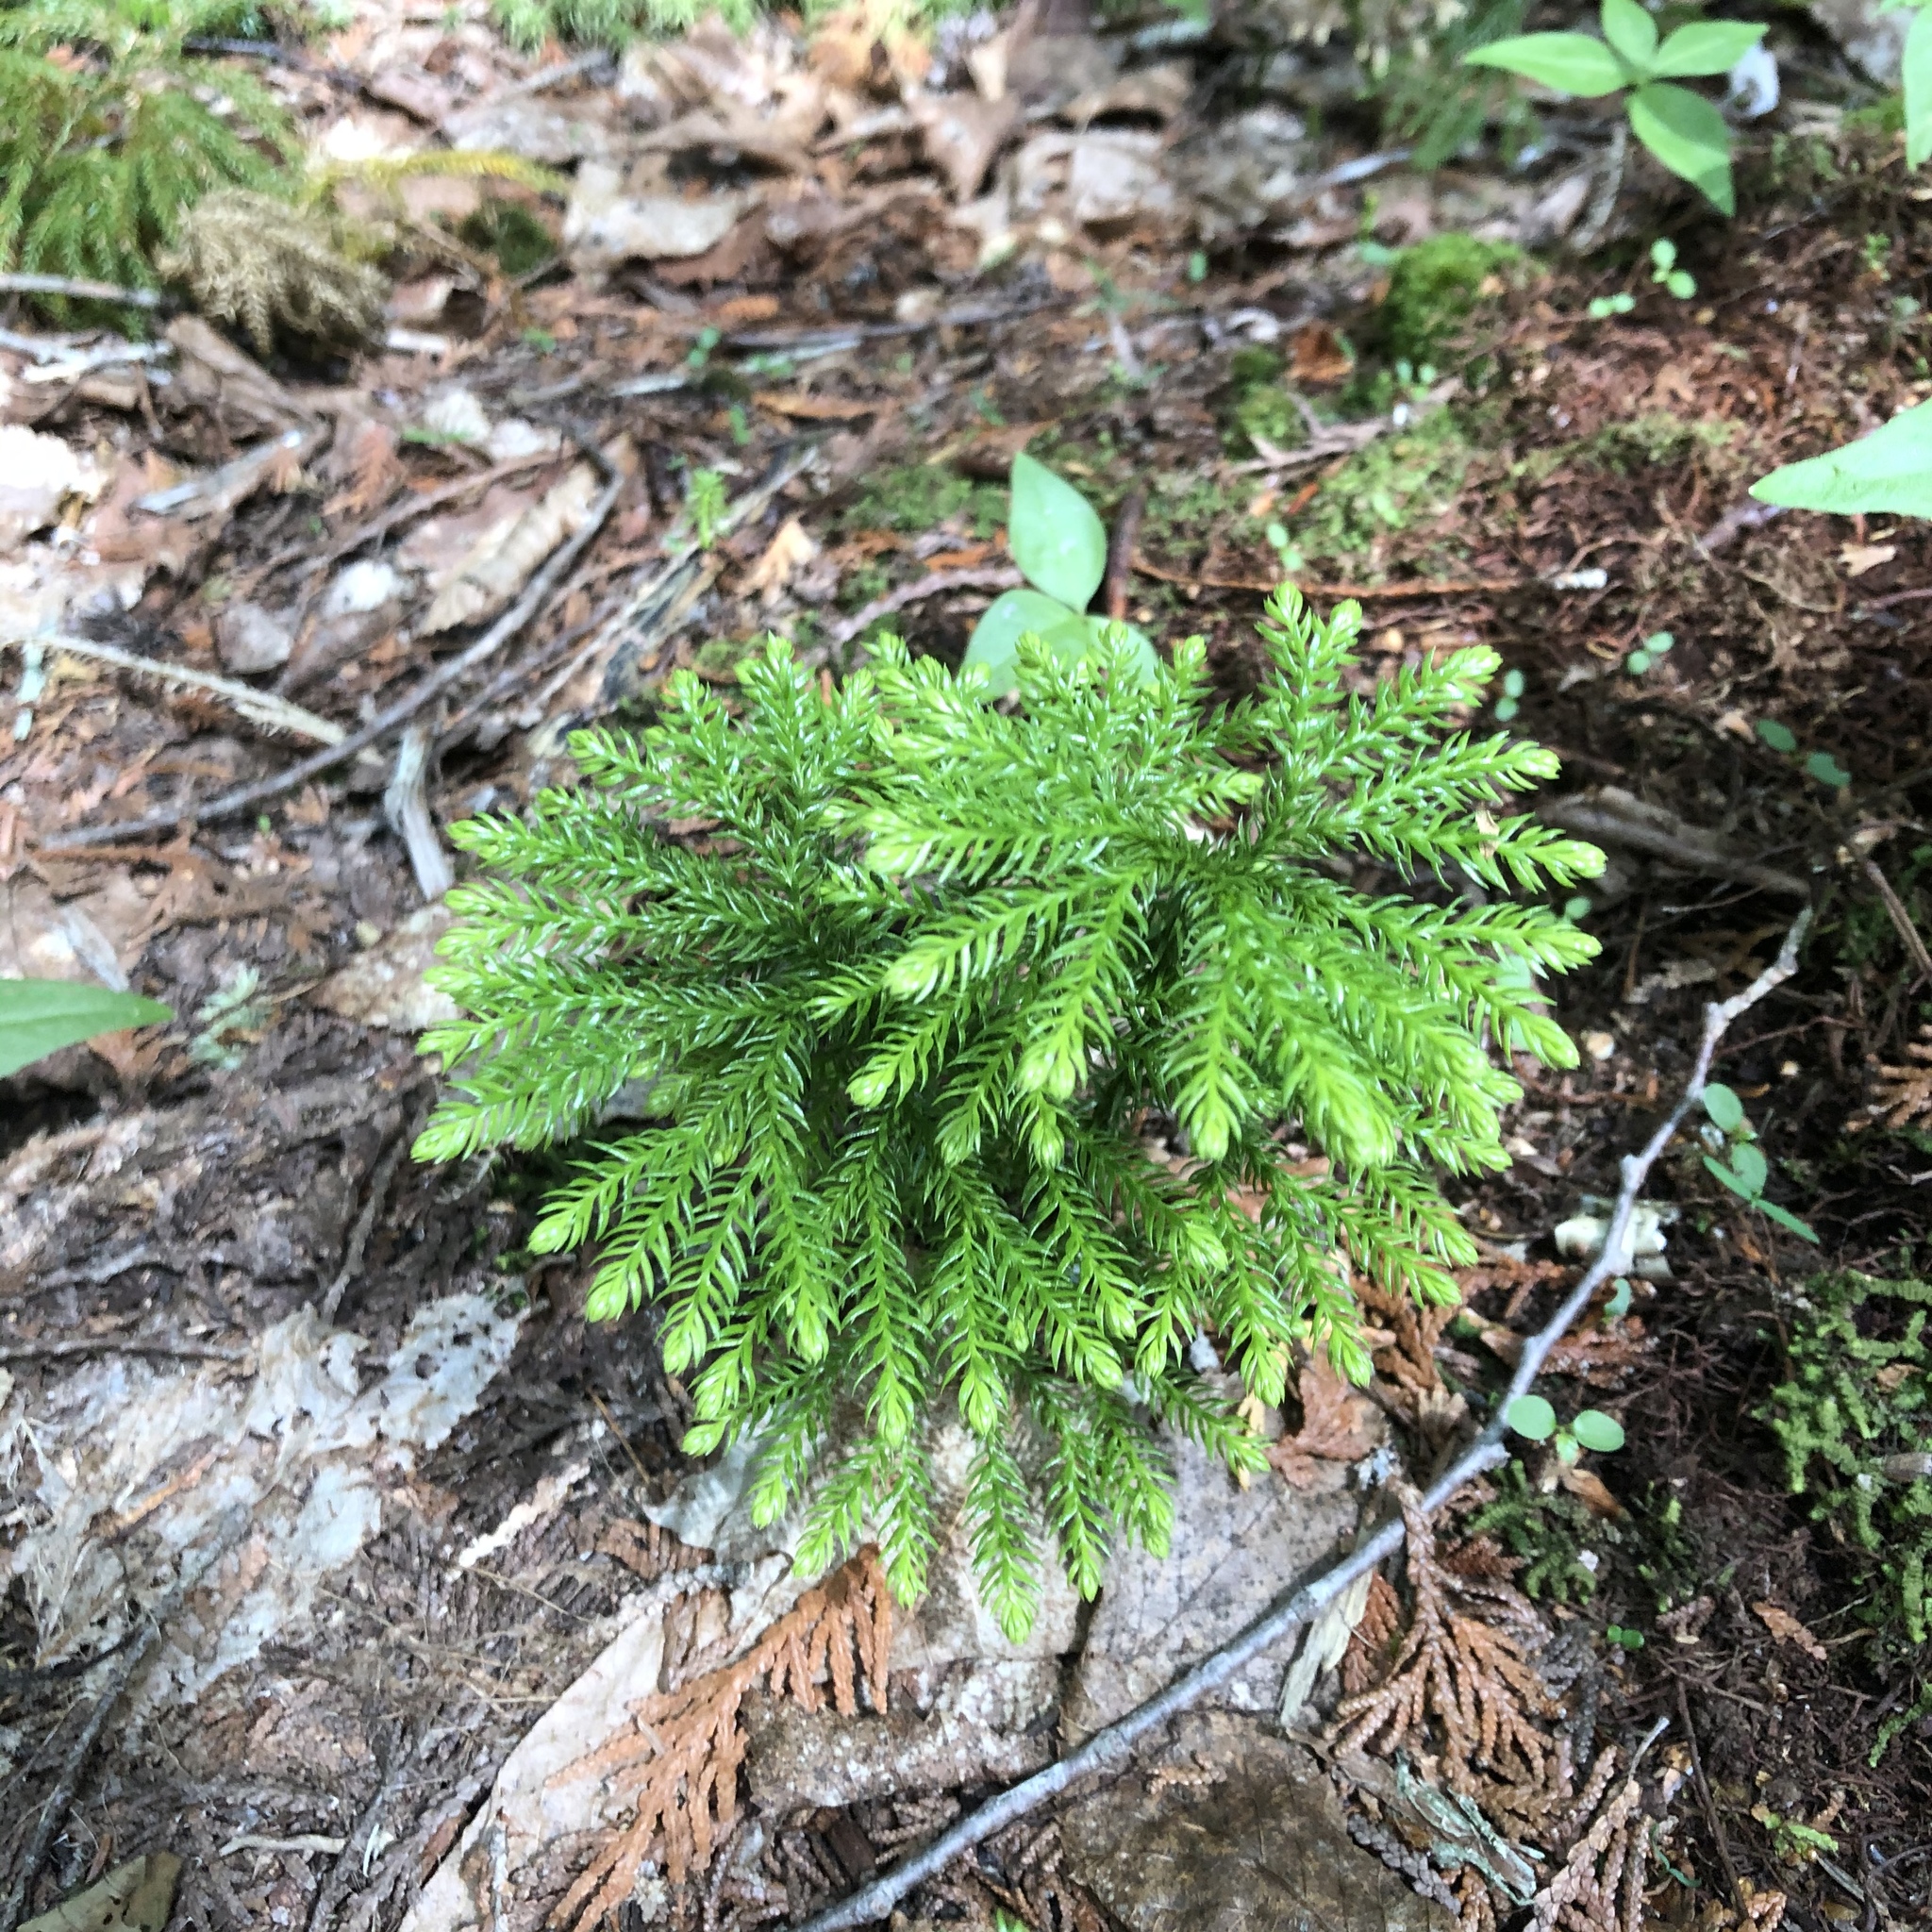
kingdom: Plantae
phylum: Tracheophyta
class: Lycopodiopsida
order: Lycopodiales
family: Lycopodiaceae
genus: Dendrolycopodium
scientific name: Dendrolycopodium dendroideum
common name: Northern tree-clubmoss
